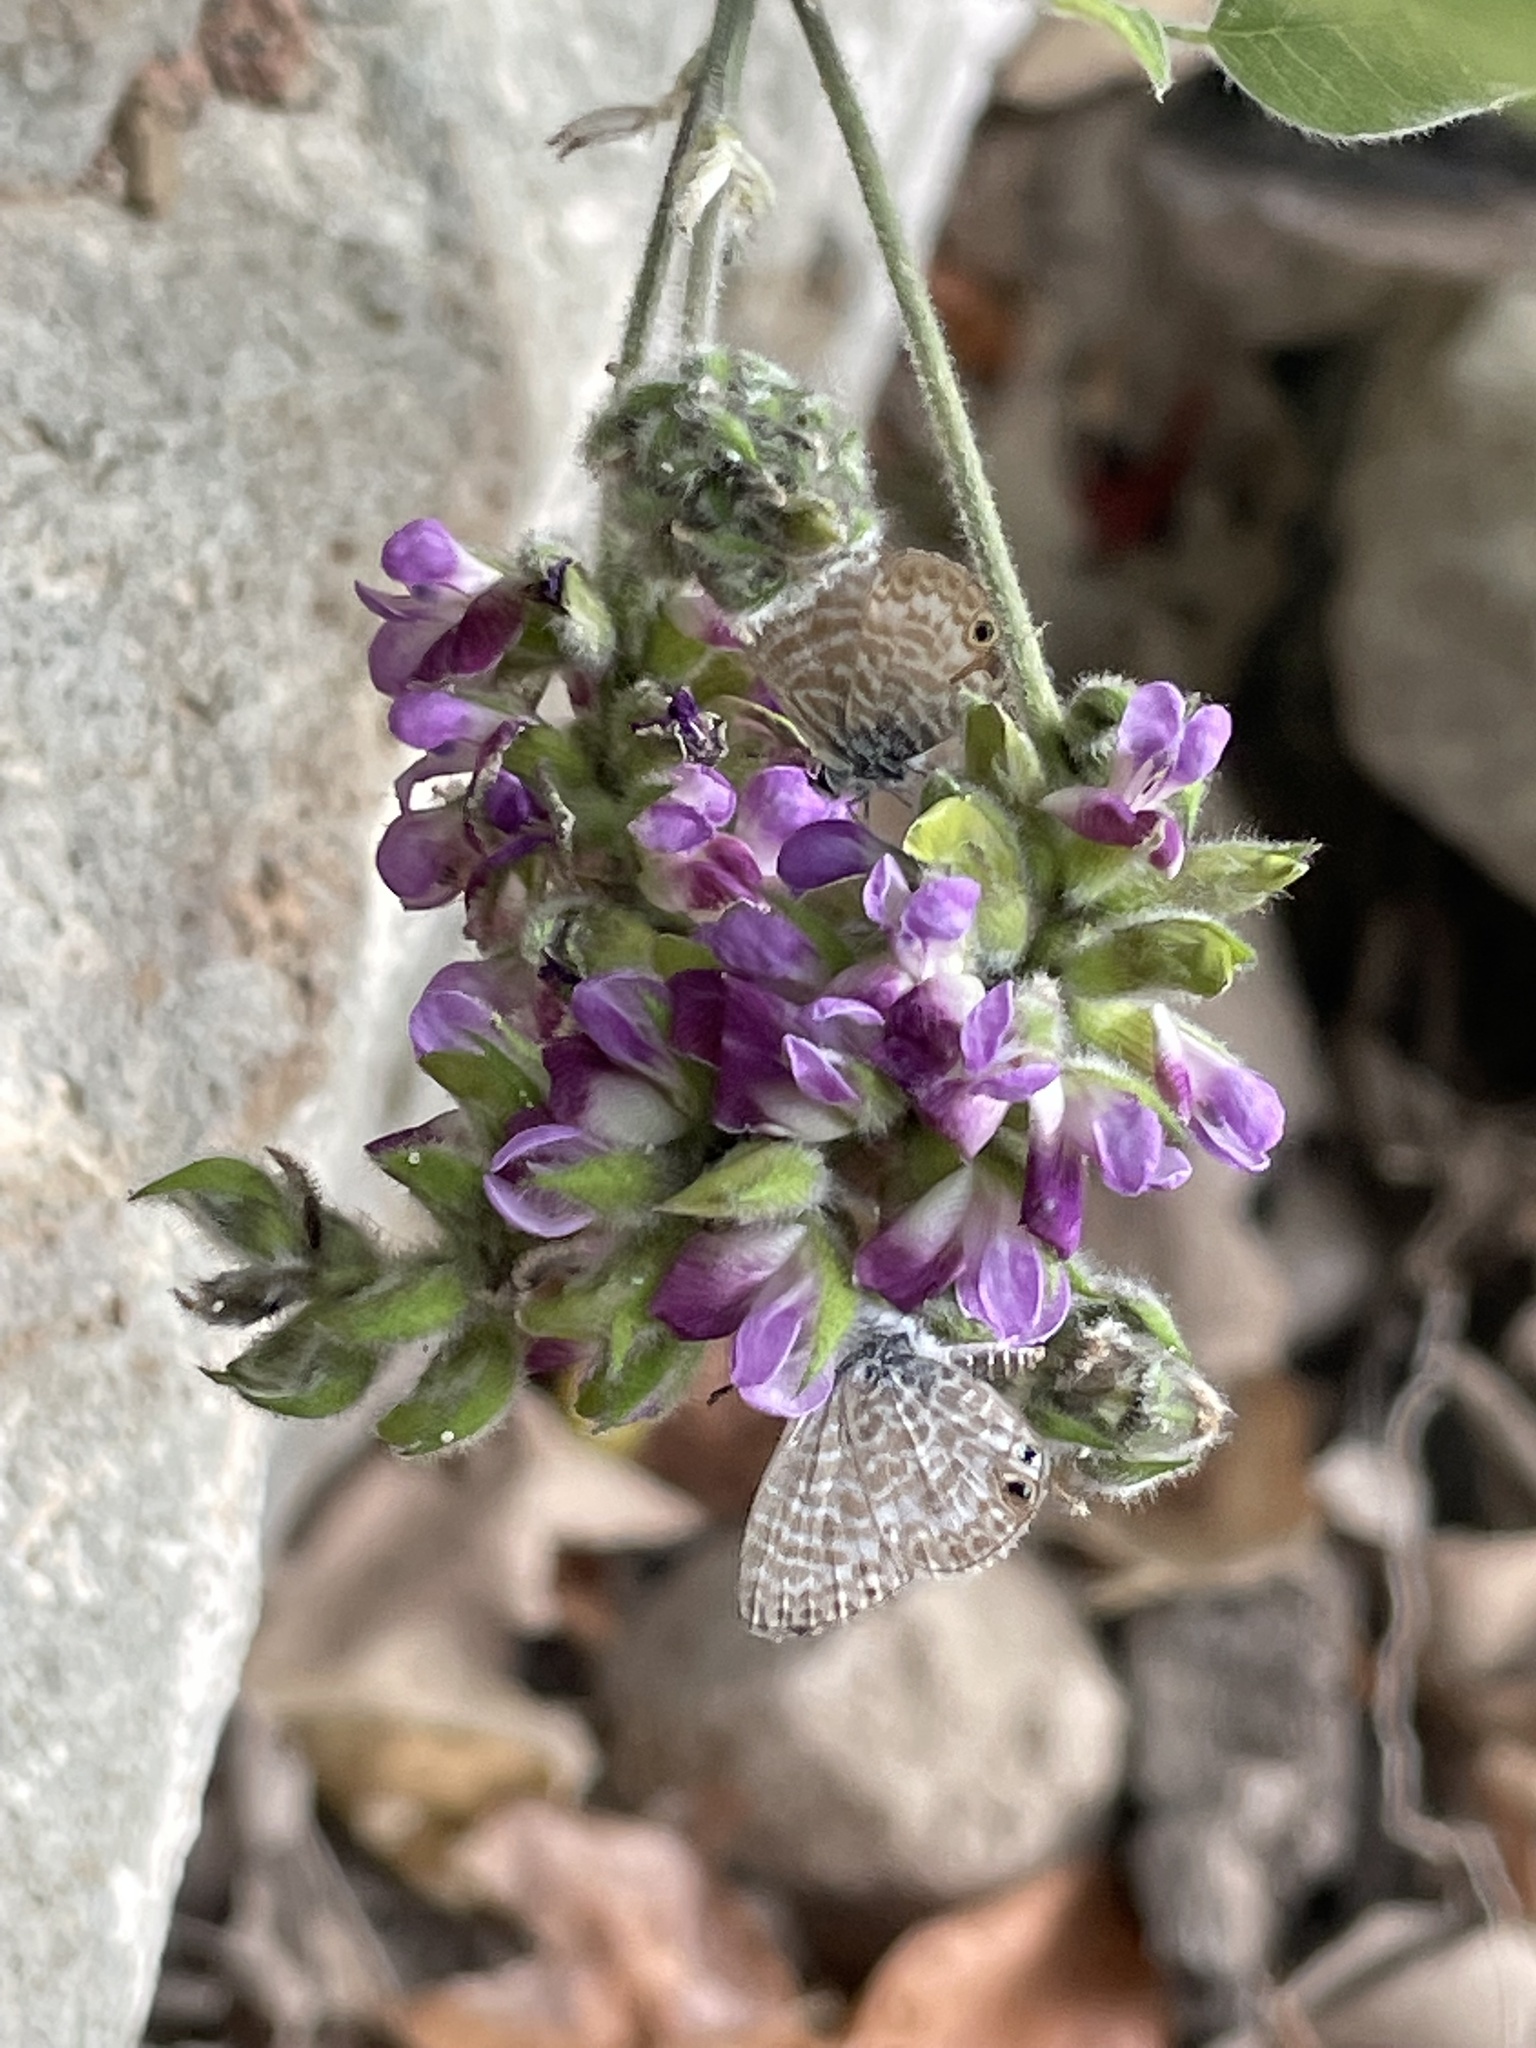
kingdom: Plantae
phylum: Tracheophyta
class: Magnoliopsida
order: Fabales
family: Fabaceae
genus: Hoita
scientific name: Hoita macrostachya
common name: Leatherroot
